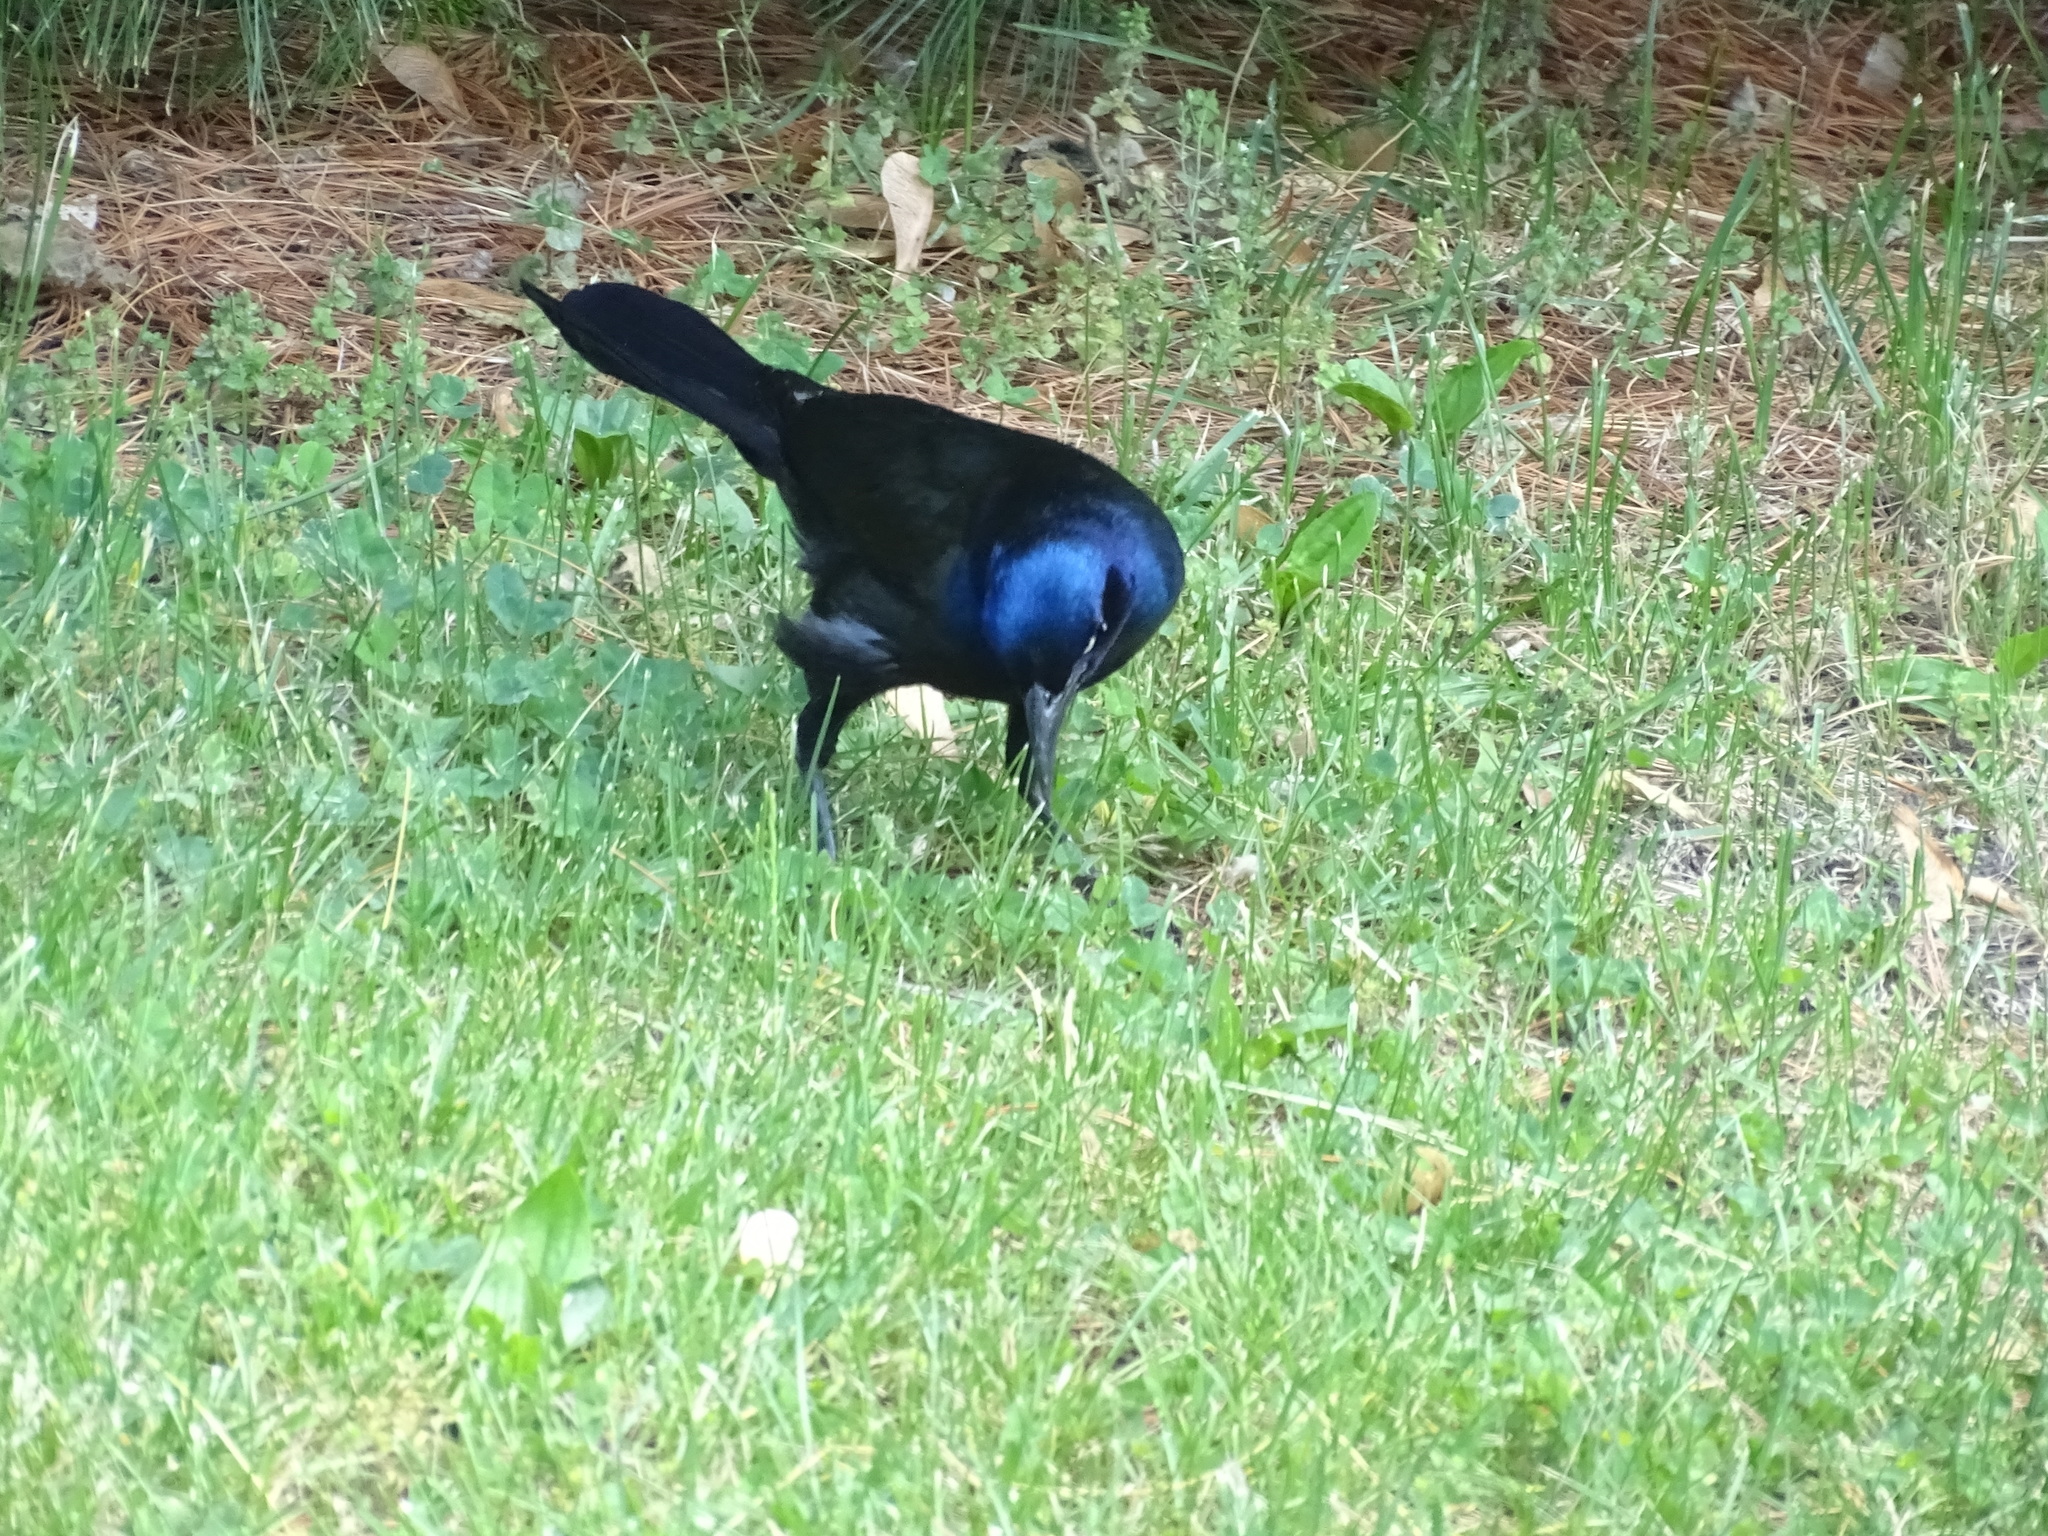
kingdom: Animalia
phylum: Chordata
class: Aves
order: Passeriformes
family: Icteridae
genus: Quiscalus
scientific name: Quiscalus quiscula
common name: Common grackle
